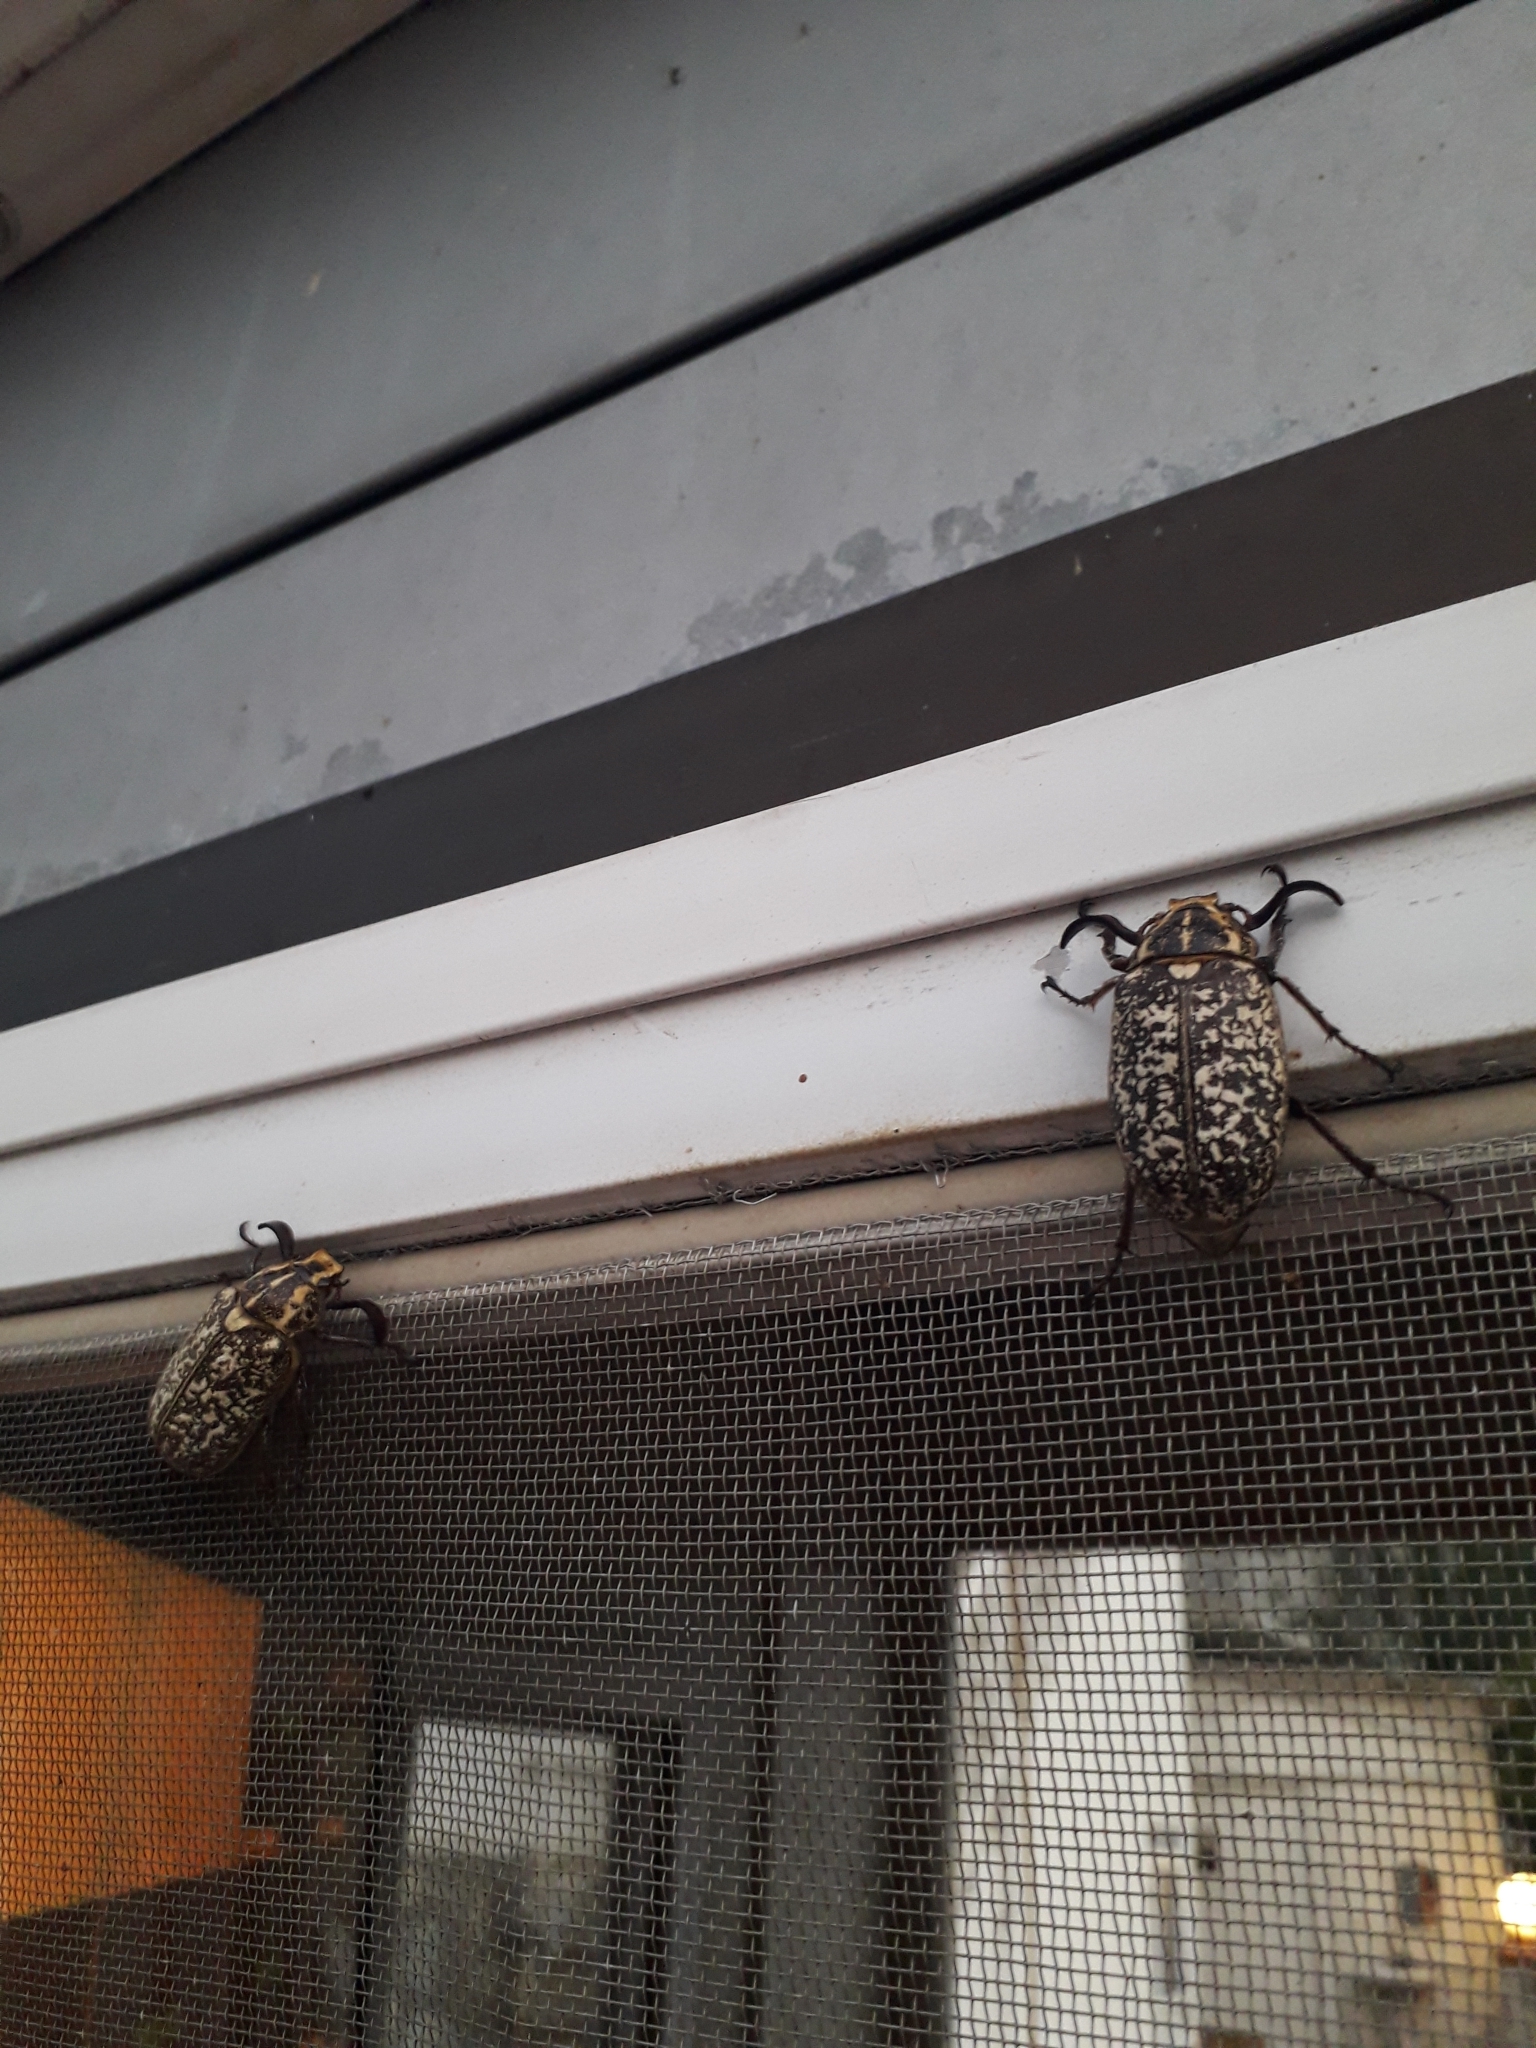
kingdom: Animalia
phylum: Arthropoda
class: Insecta
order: Coleoptera
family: Scarabaeidae
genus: Polyphylla
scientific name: Polyphylla fullo
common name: Pine chafer
